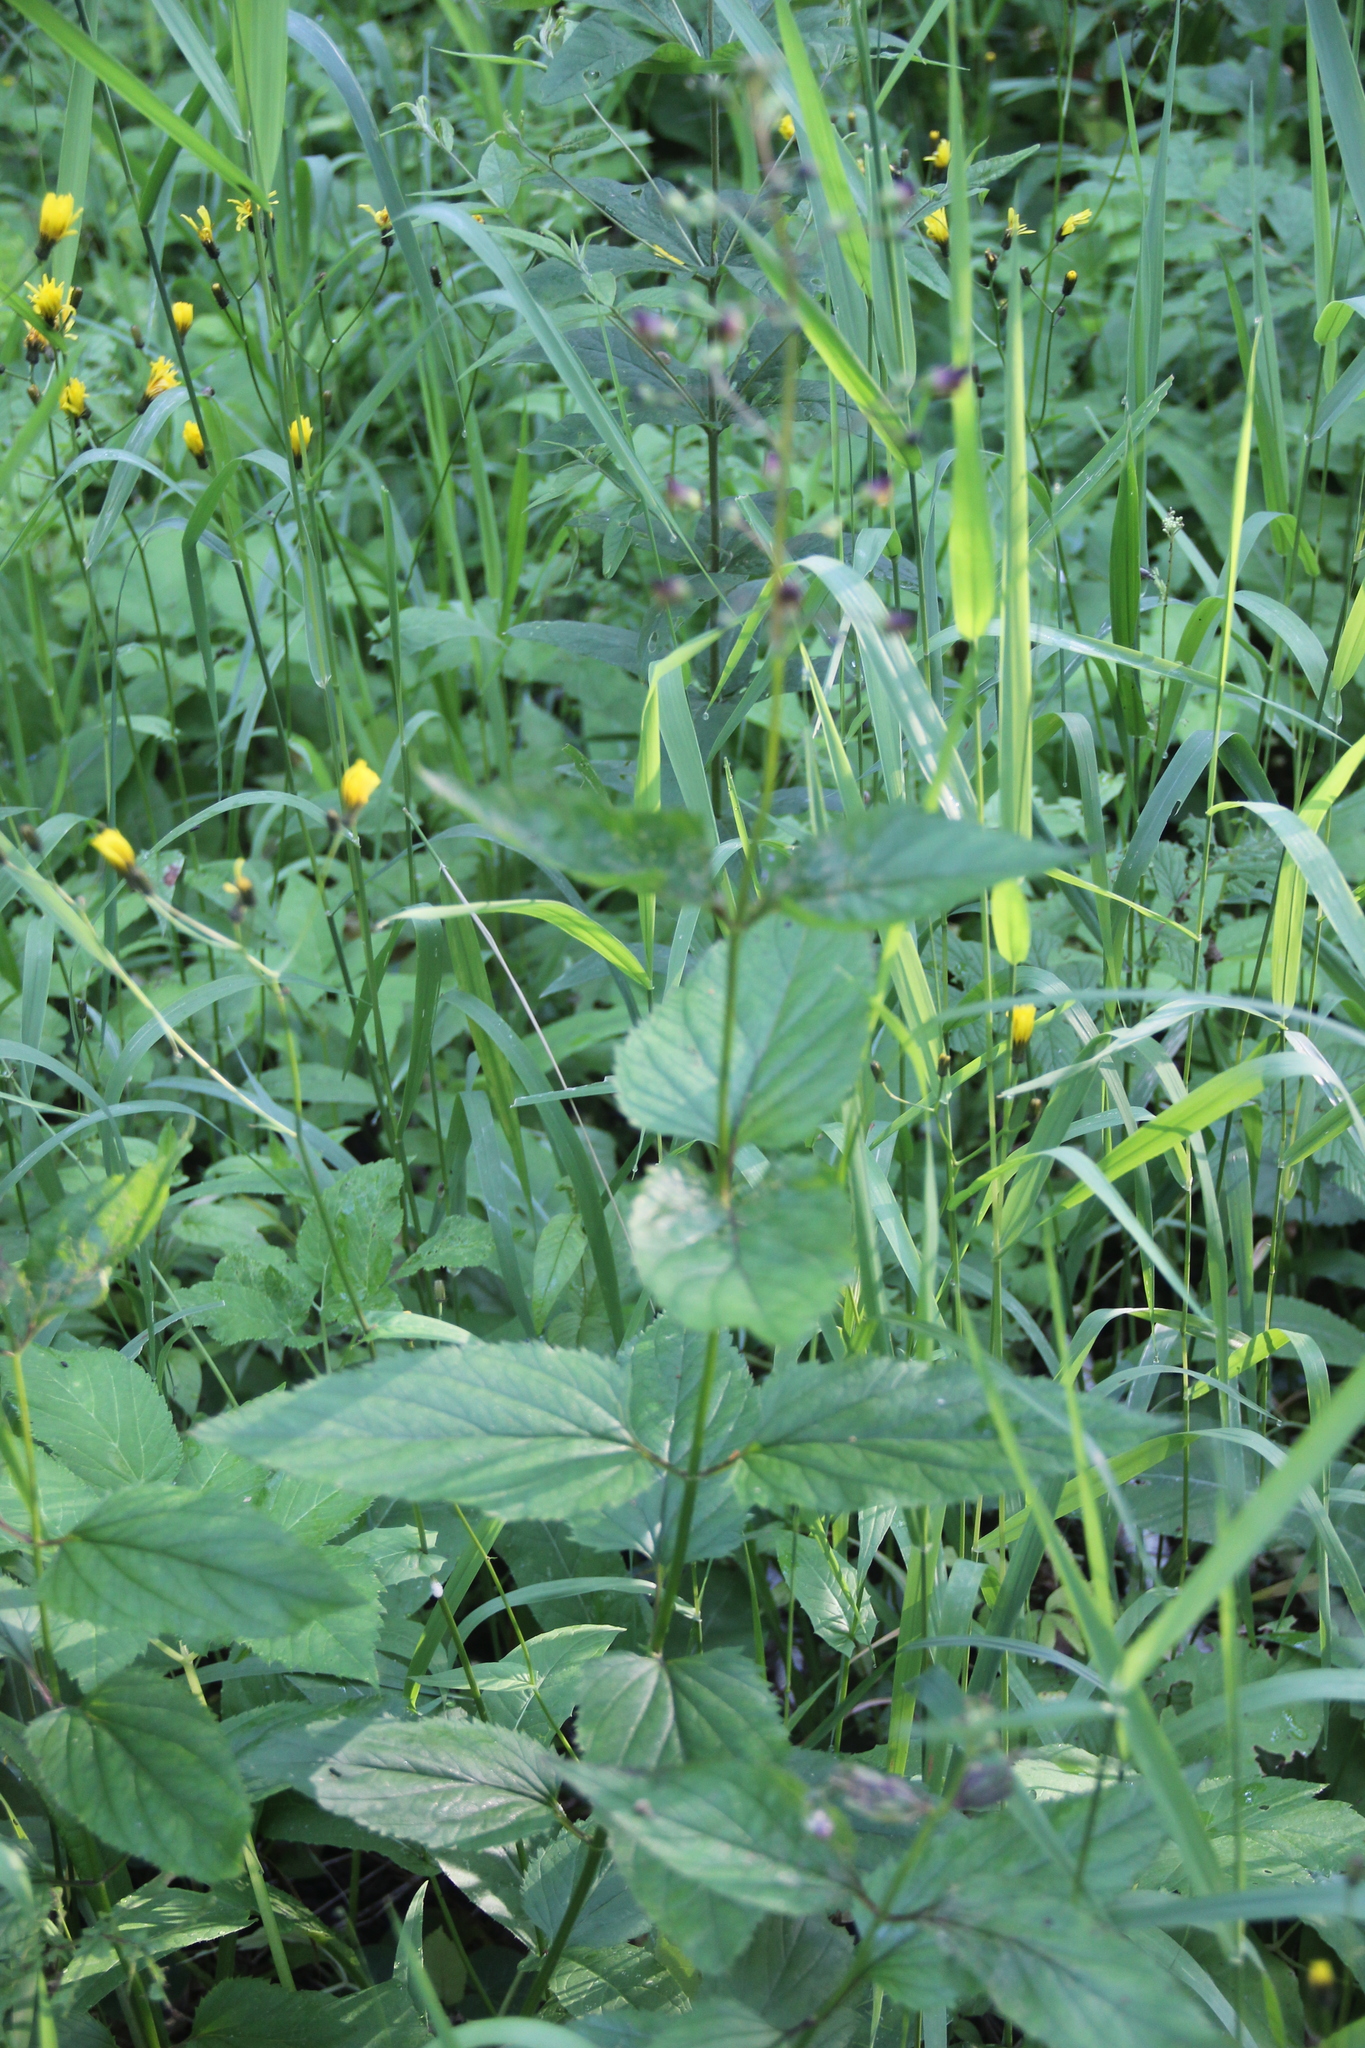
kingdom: Plantae
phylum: Tracheophyta
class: Magnoliopsida
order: Lamiales
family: Scrophulariaceae
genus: Scrophularia
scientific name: Scrophularia nodosa
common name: Common figwort
